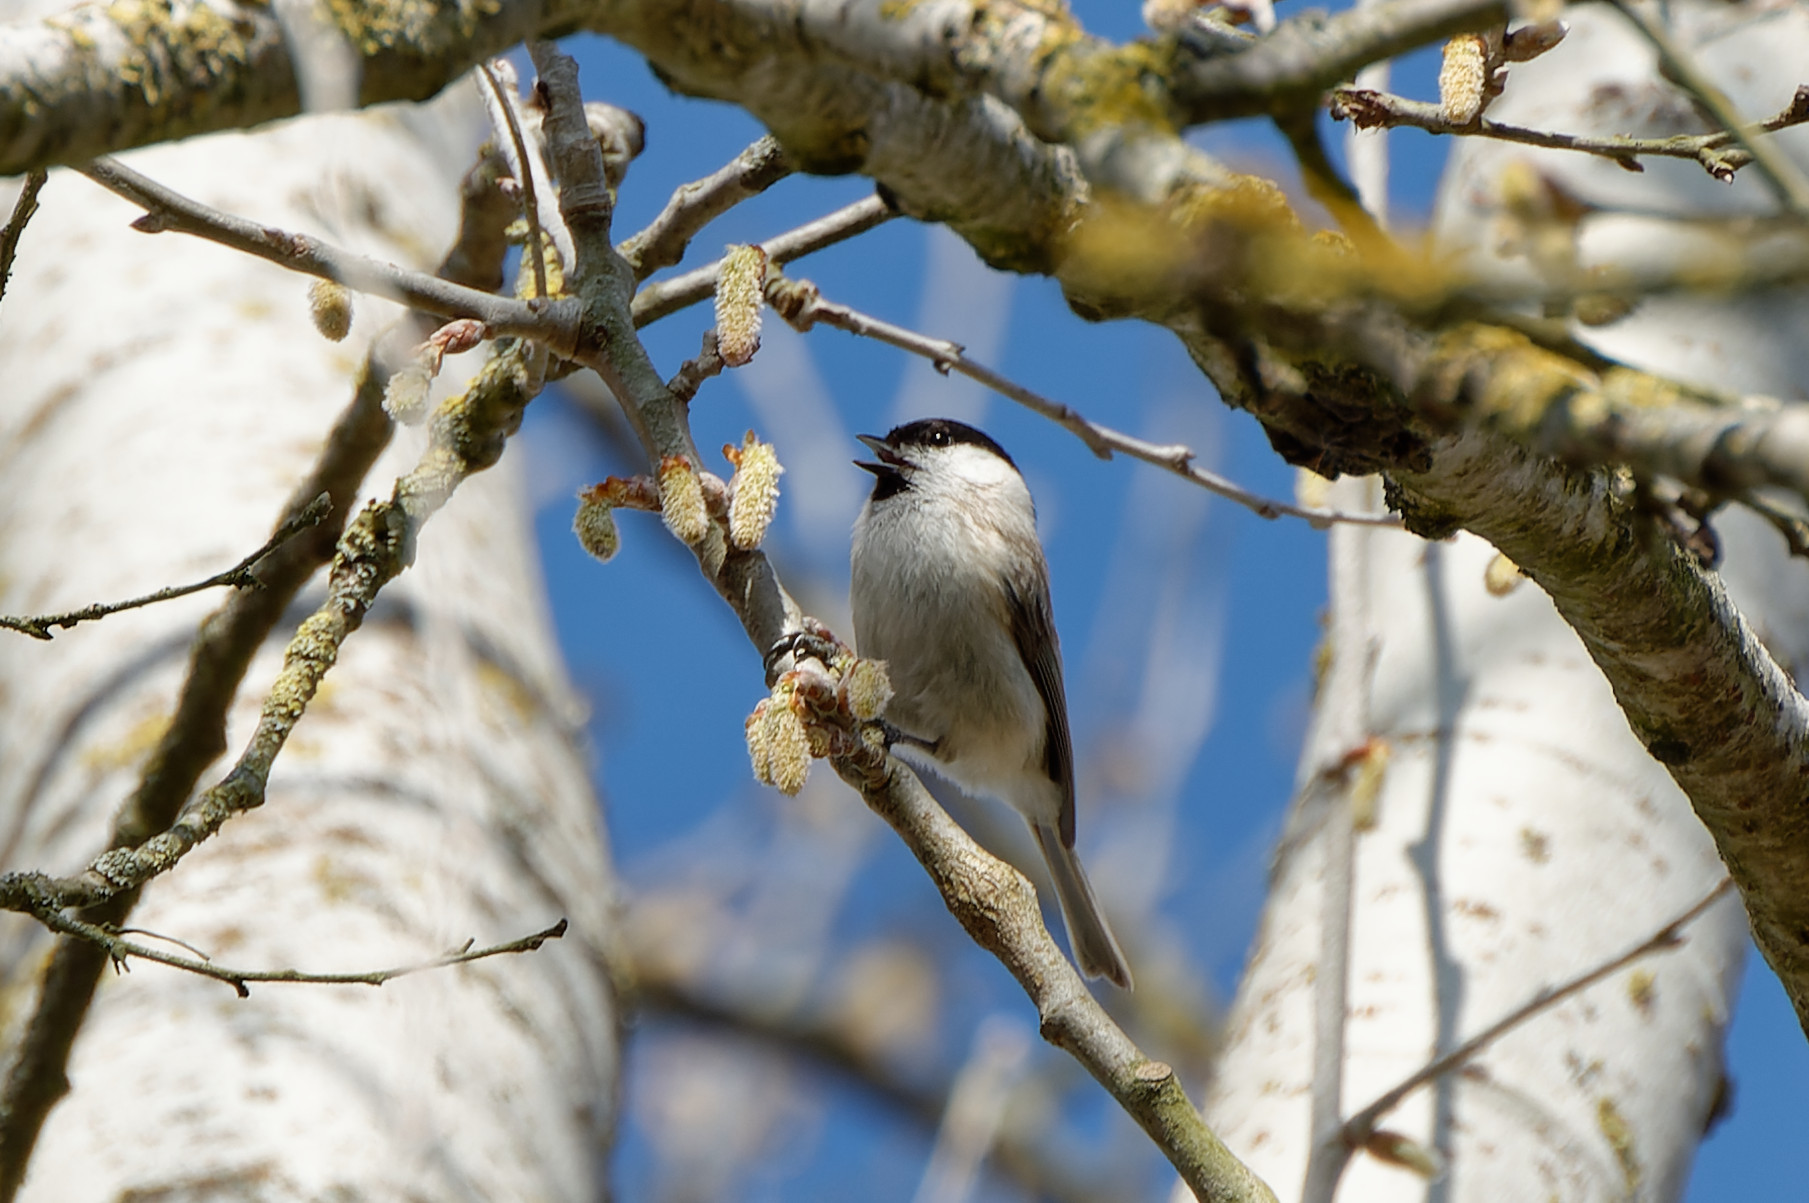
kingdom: Animalia
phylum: Chordata
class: Aves
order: Passeriformes
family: Paridae
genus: Poecile
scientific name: Poecile palustris
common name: Marsh tit
